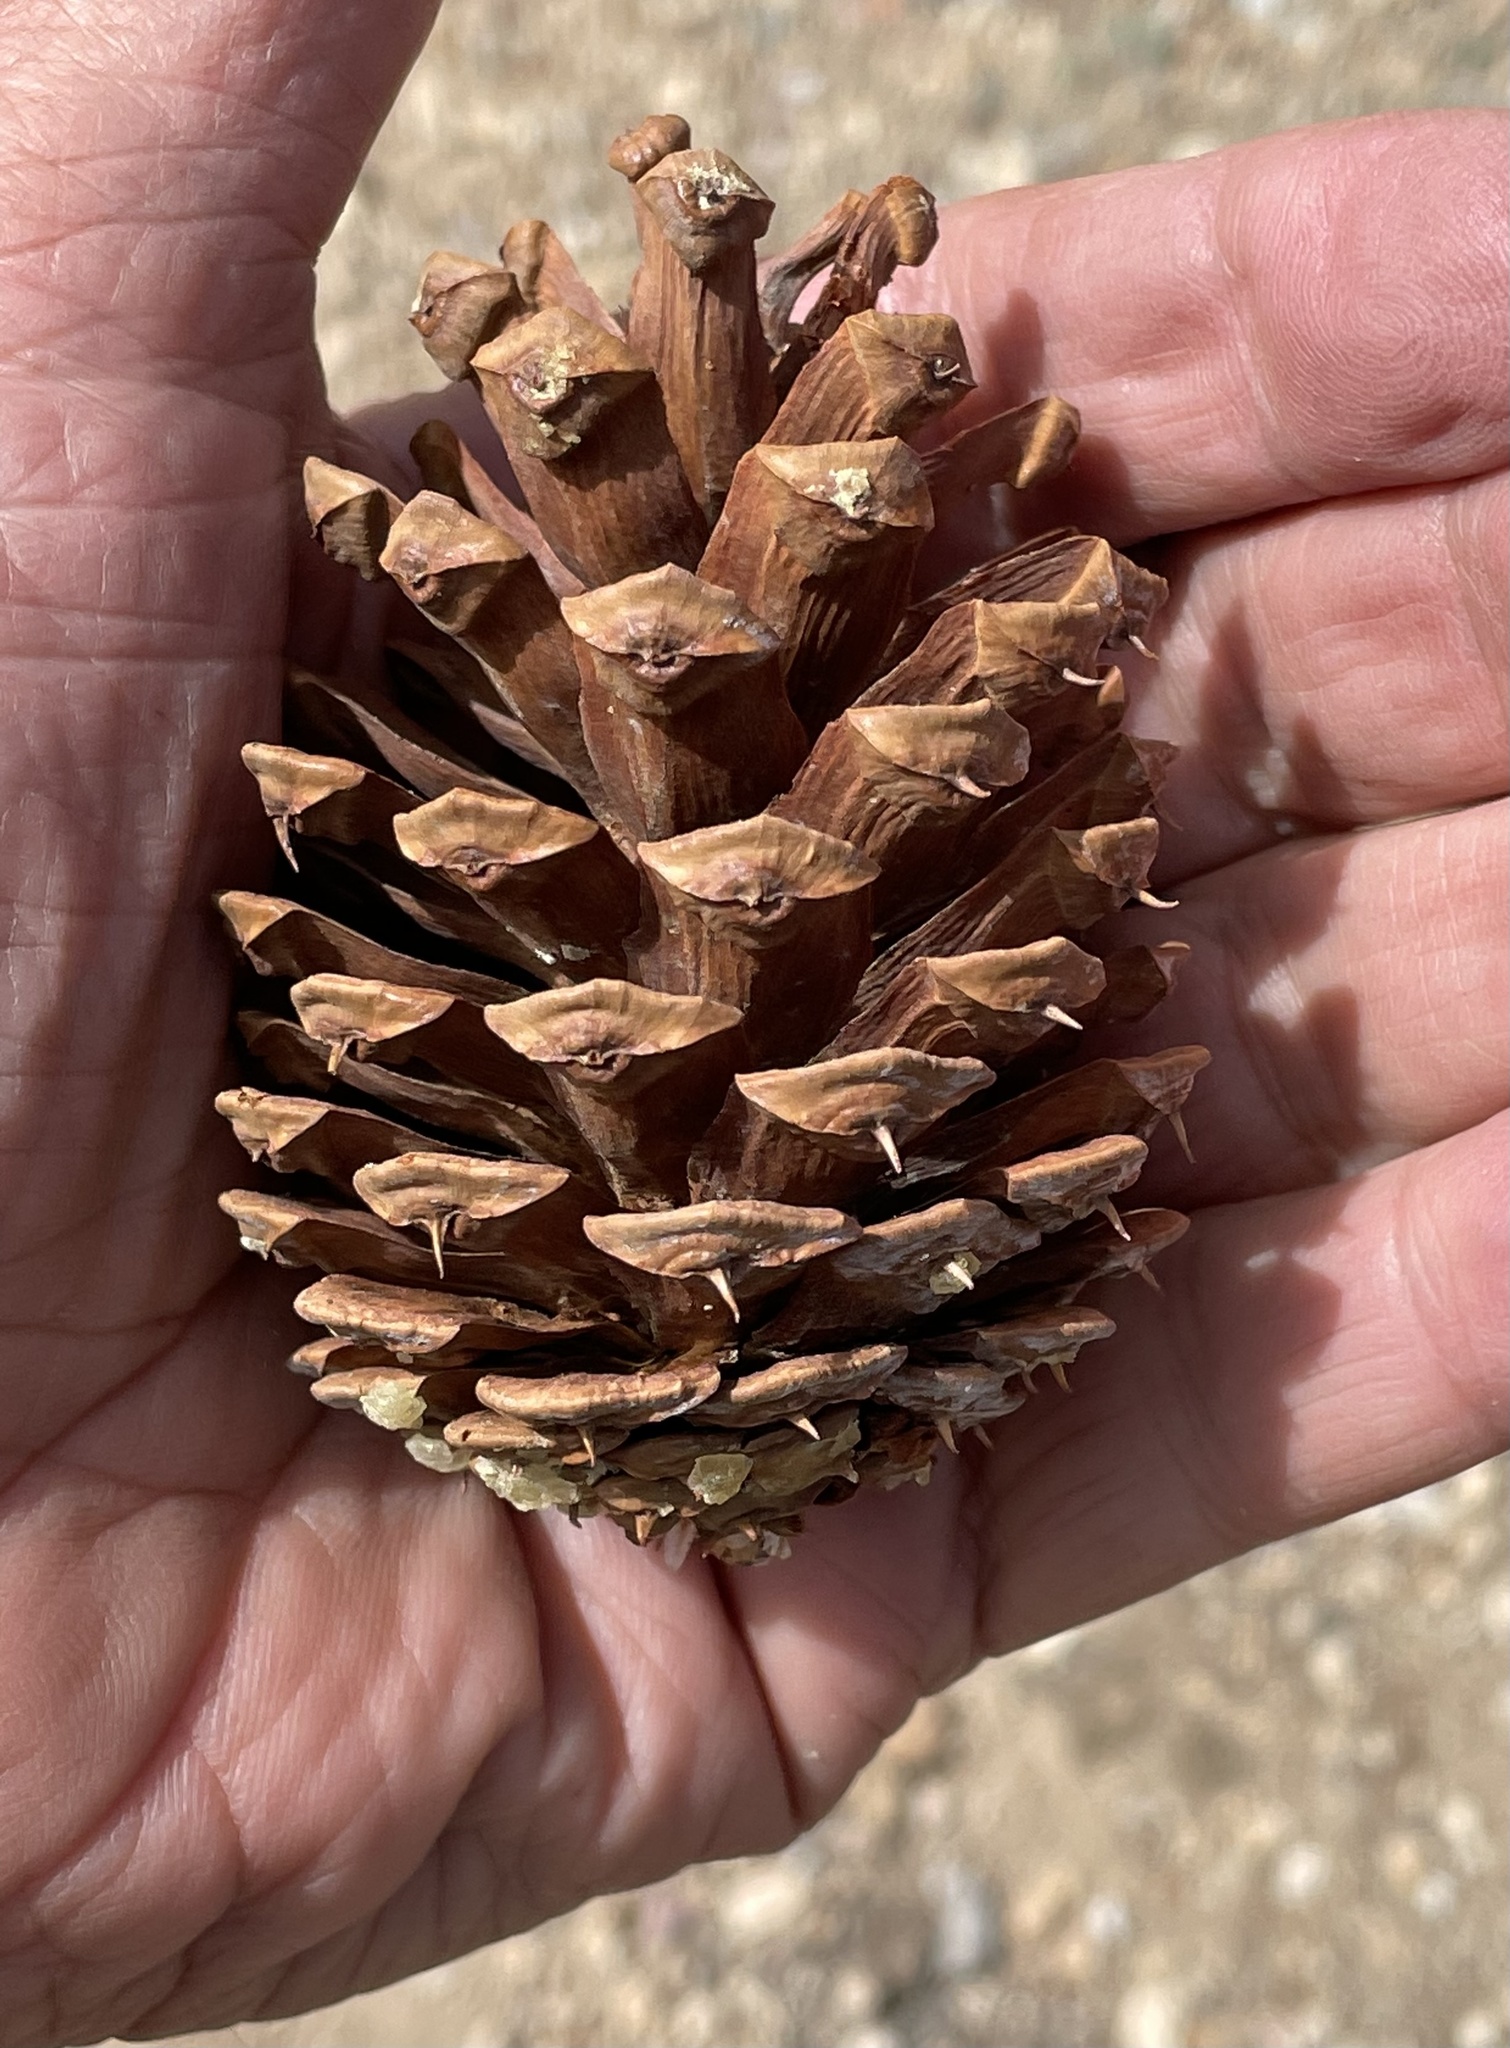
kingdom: Plantae
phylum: Tracheophyta
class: Pinopsida
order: Pinales
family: Pinaceae
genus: Pinus
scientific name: Pinus longaeva
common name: Intermountain bristlecone pine
